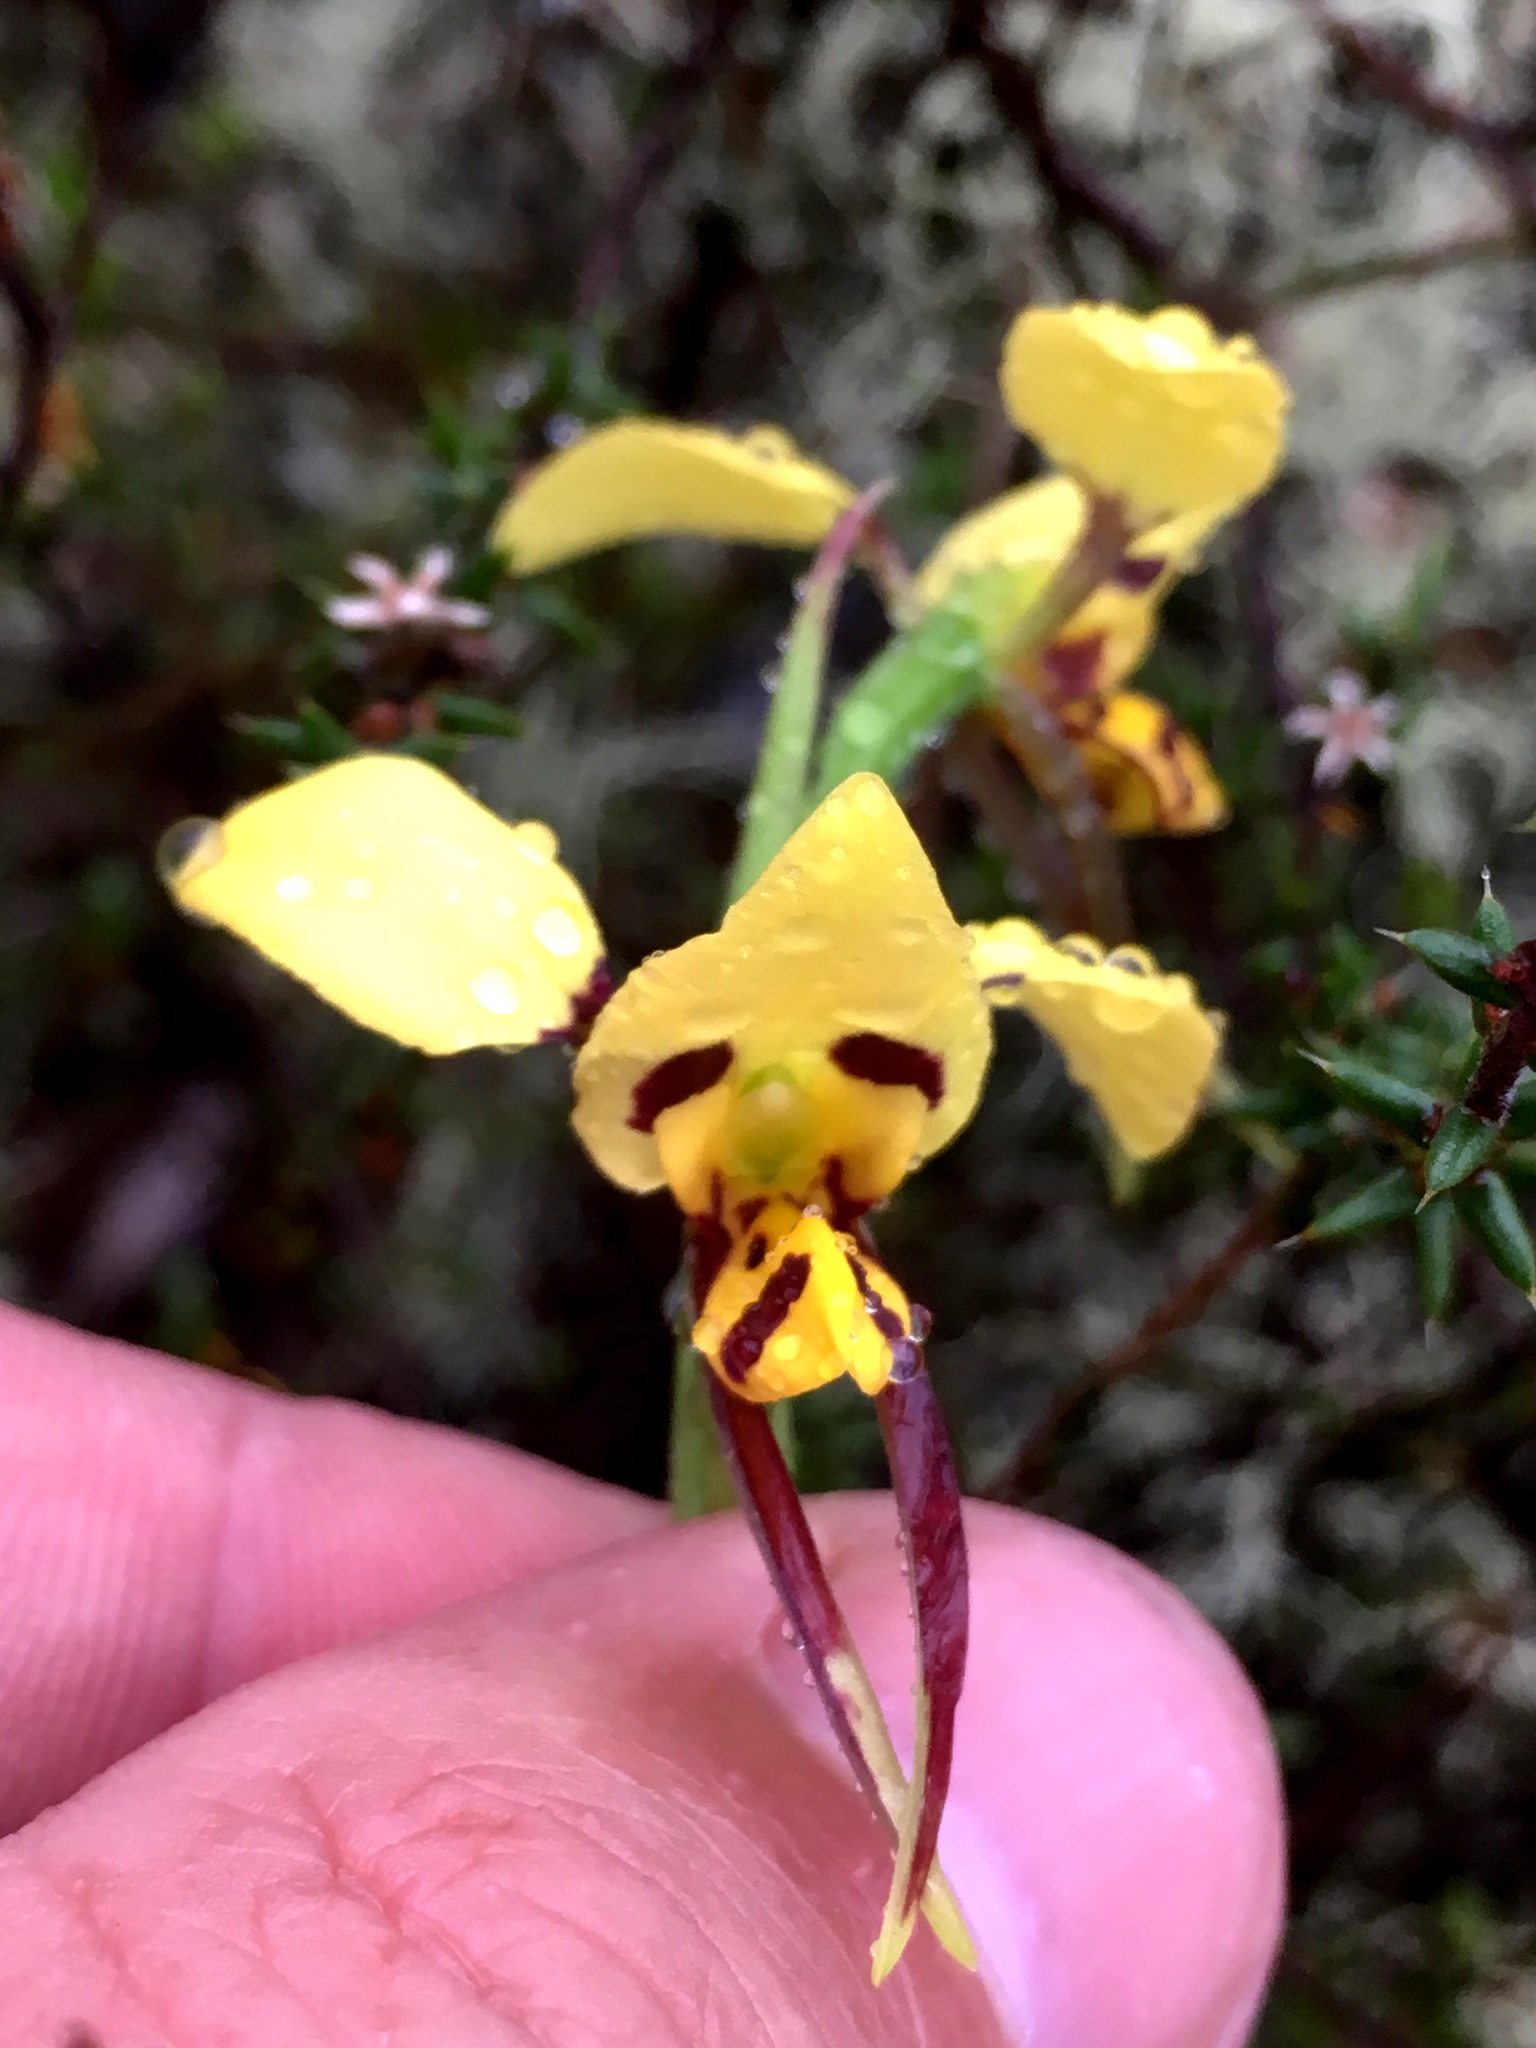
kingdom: Plantae
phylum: Tracheophyta
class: Liliopsida
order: Asparagales
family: Orchidaceae
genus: Diuris
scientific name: Diuris sulphurea
